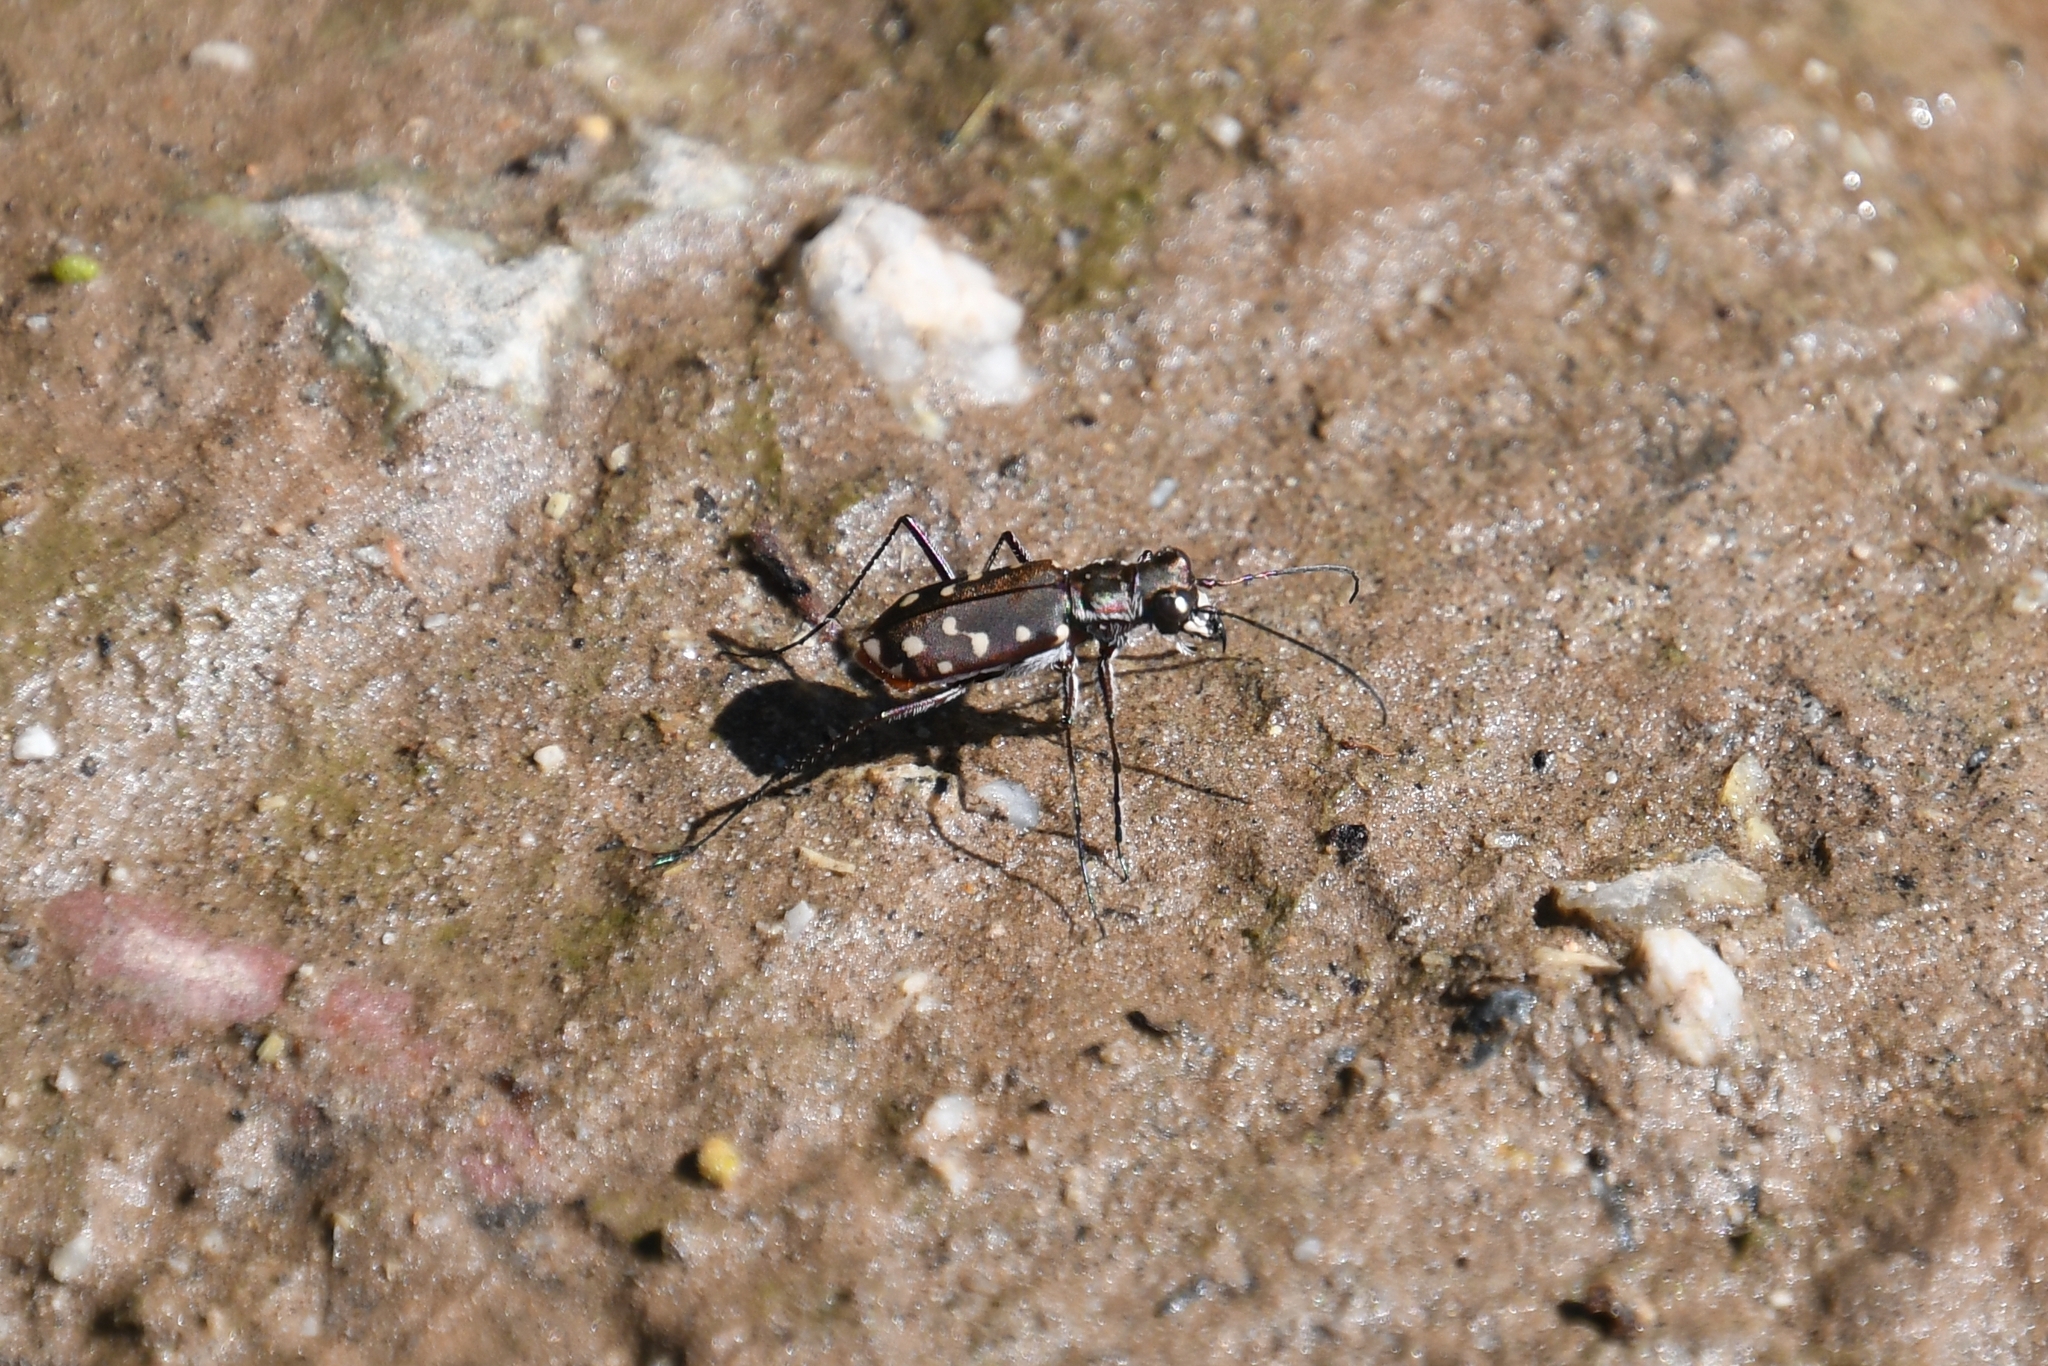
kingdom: Animalia
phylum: Arthropoda
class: Insecta
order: Coleoptera
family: Carabidae
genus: Cicindela
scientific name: Cicindela sedecimpunctata
